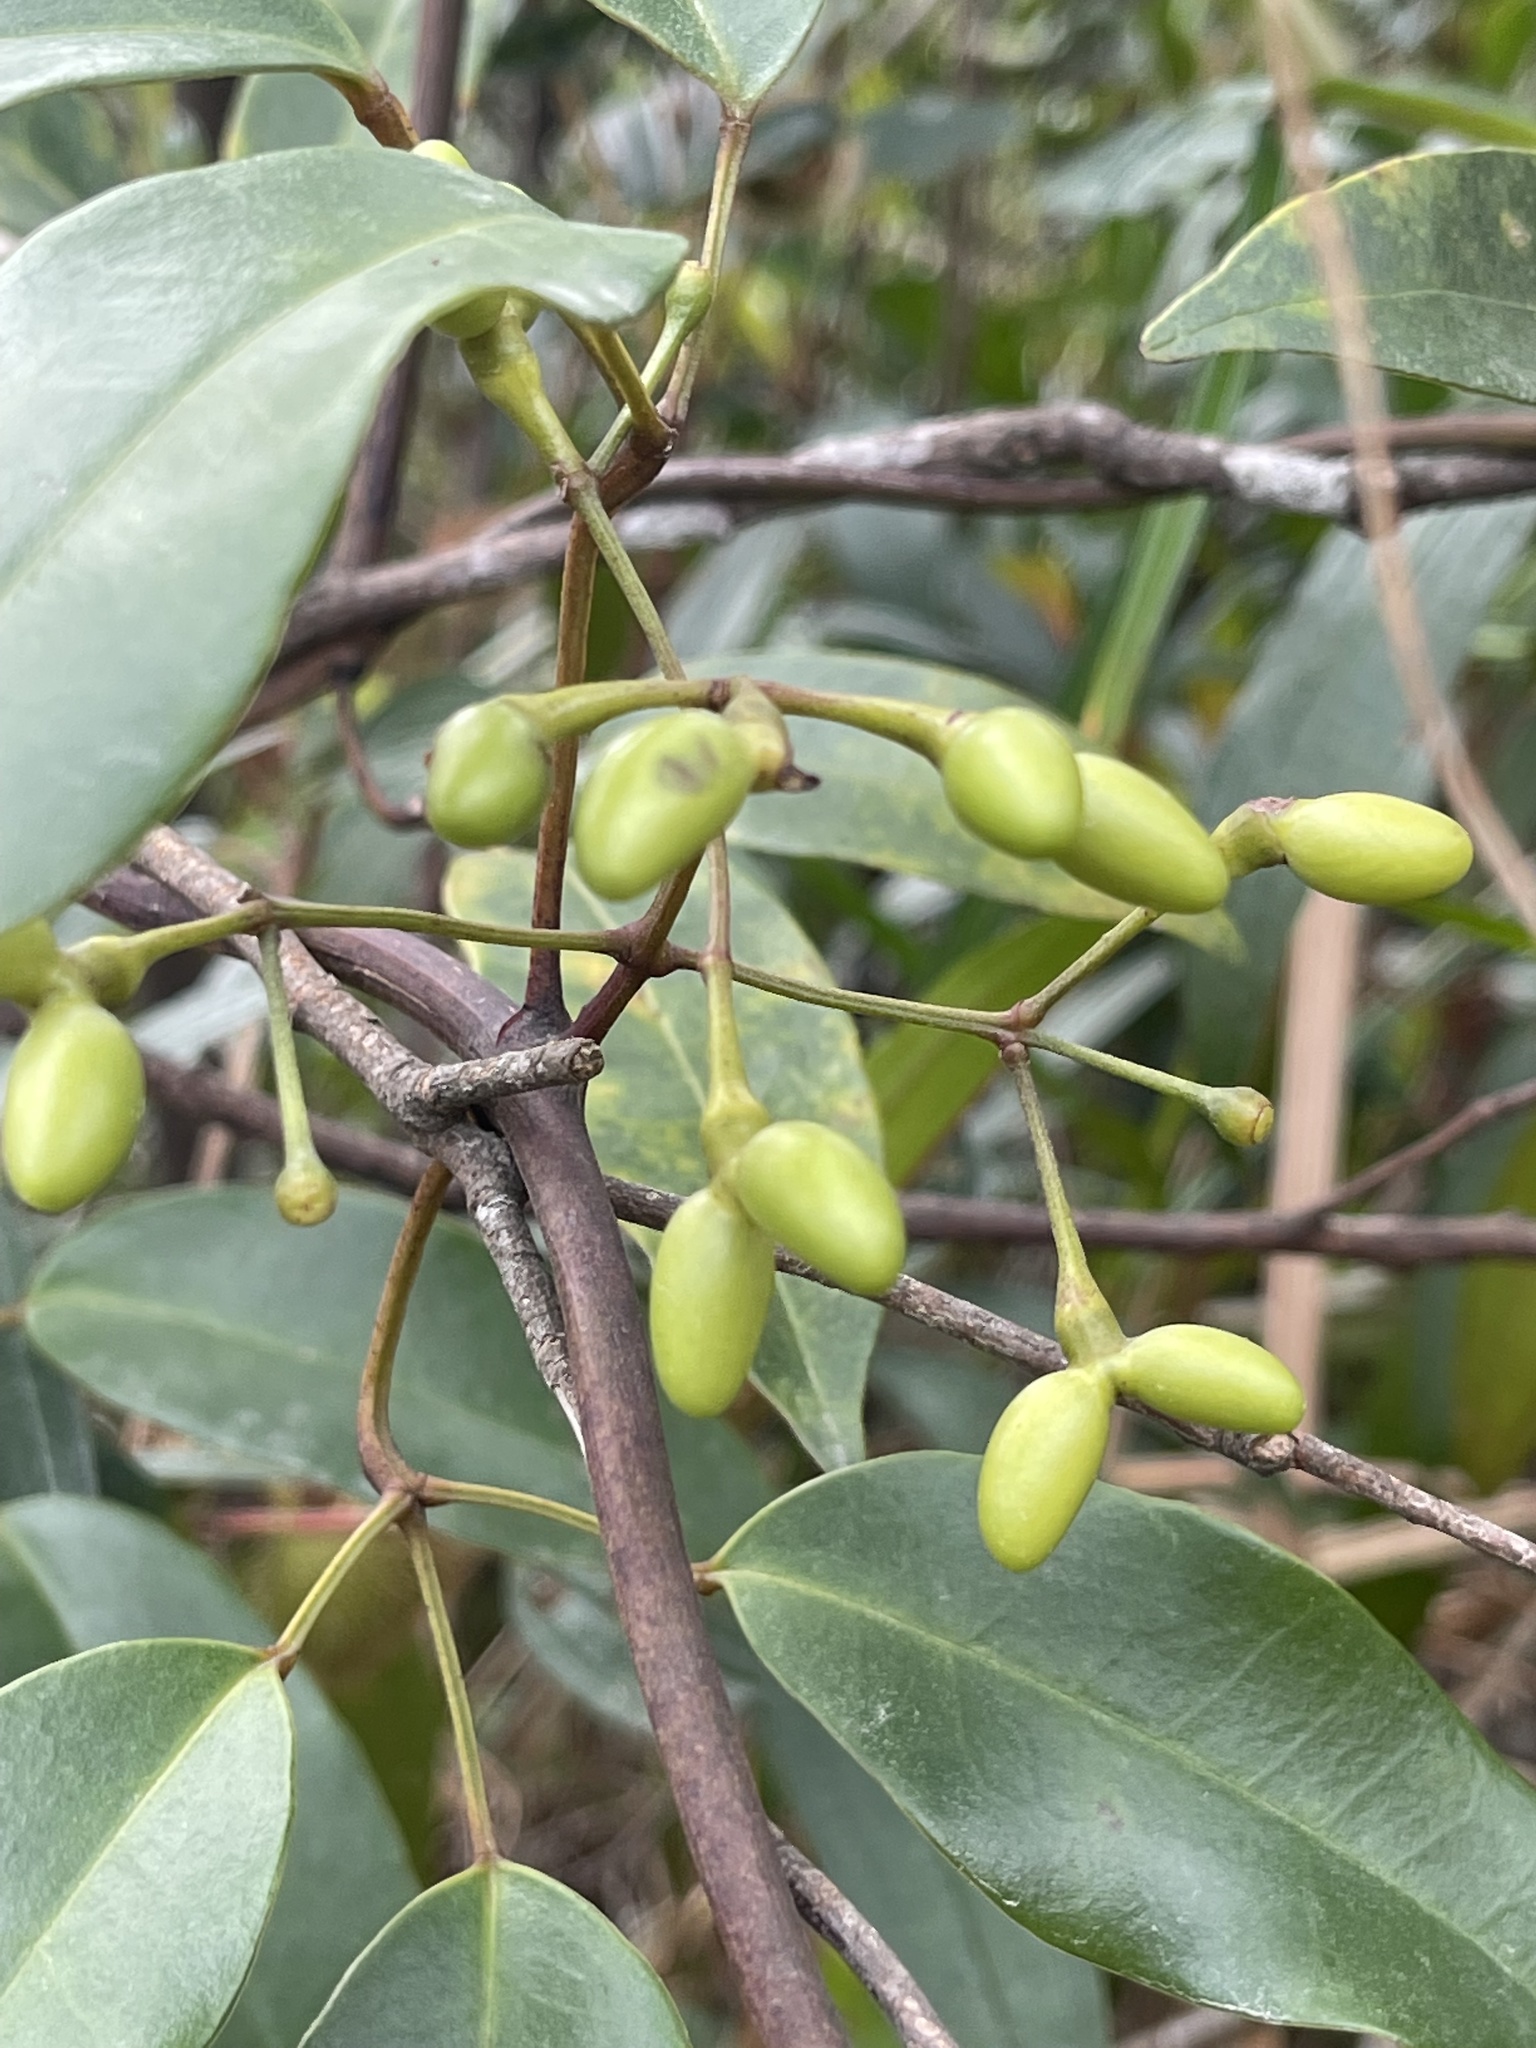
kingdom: Plantae
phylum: Tracheophyta
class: Magnoliopsida
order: Lamiales
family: Oleaceae
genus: Jasminum
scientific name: Jasminum lanceolaria
